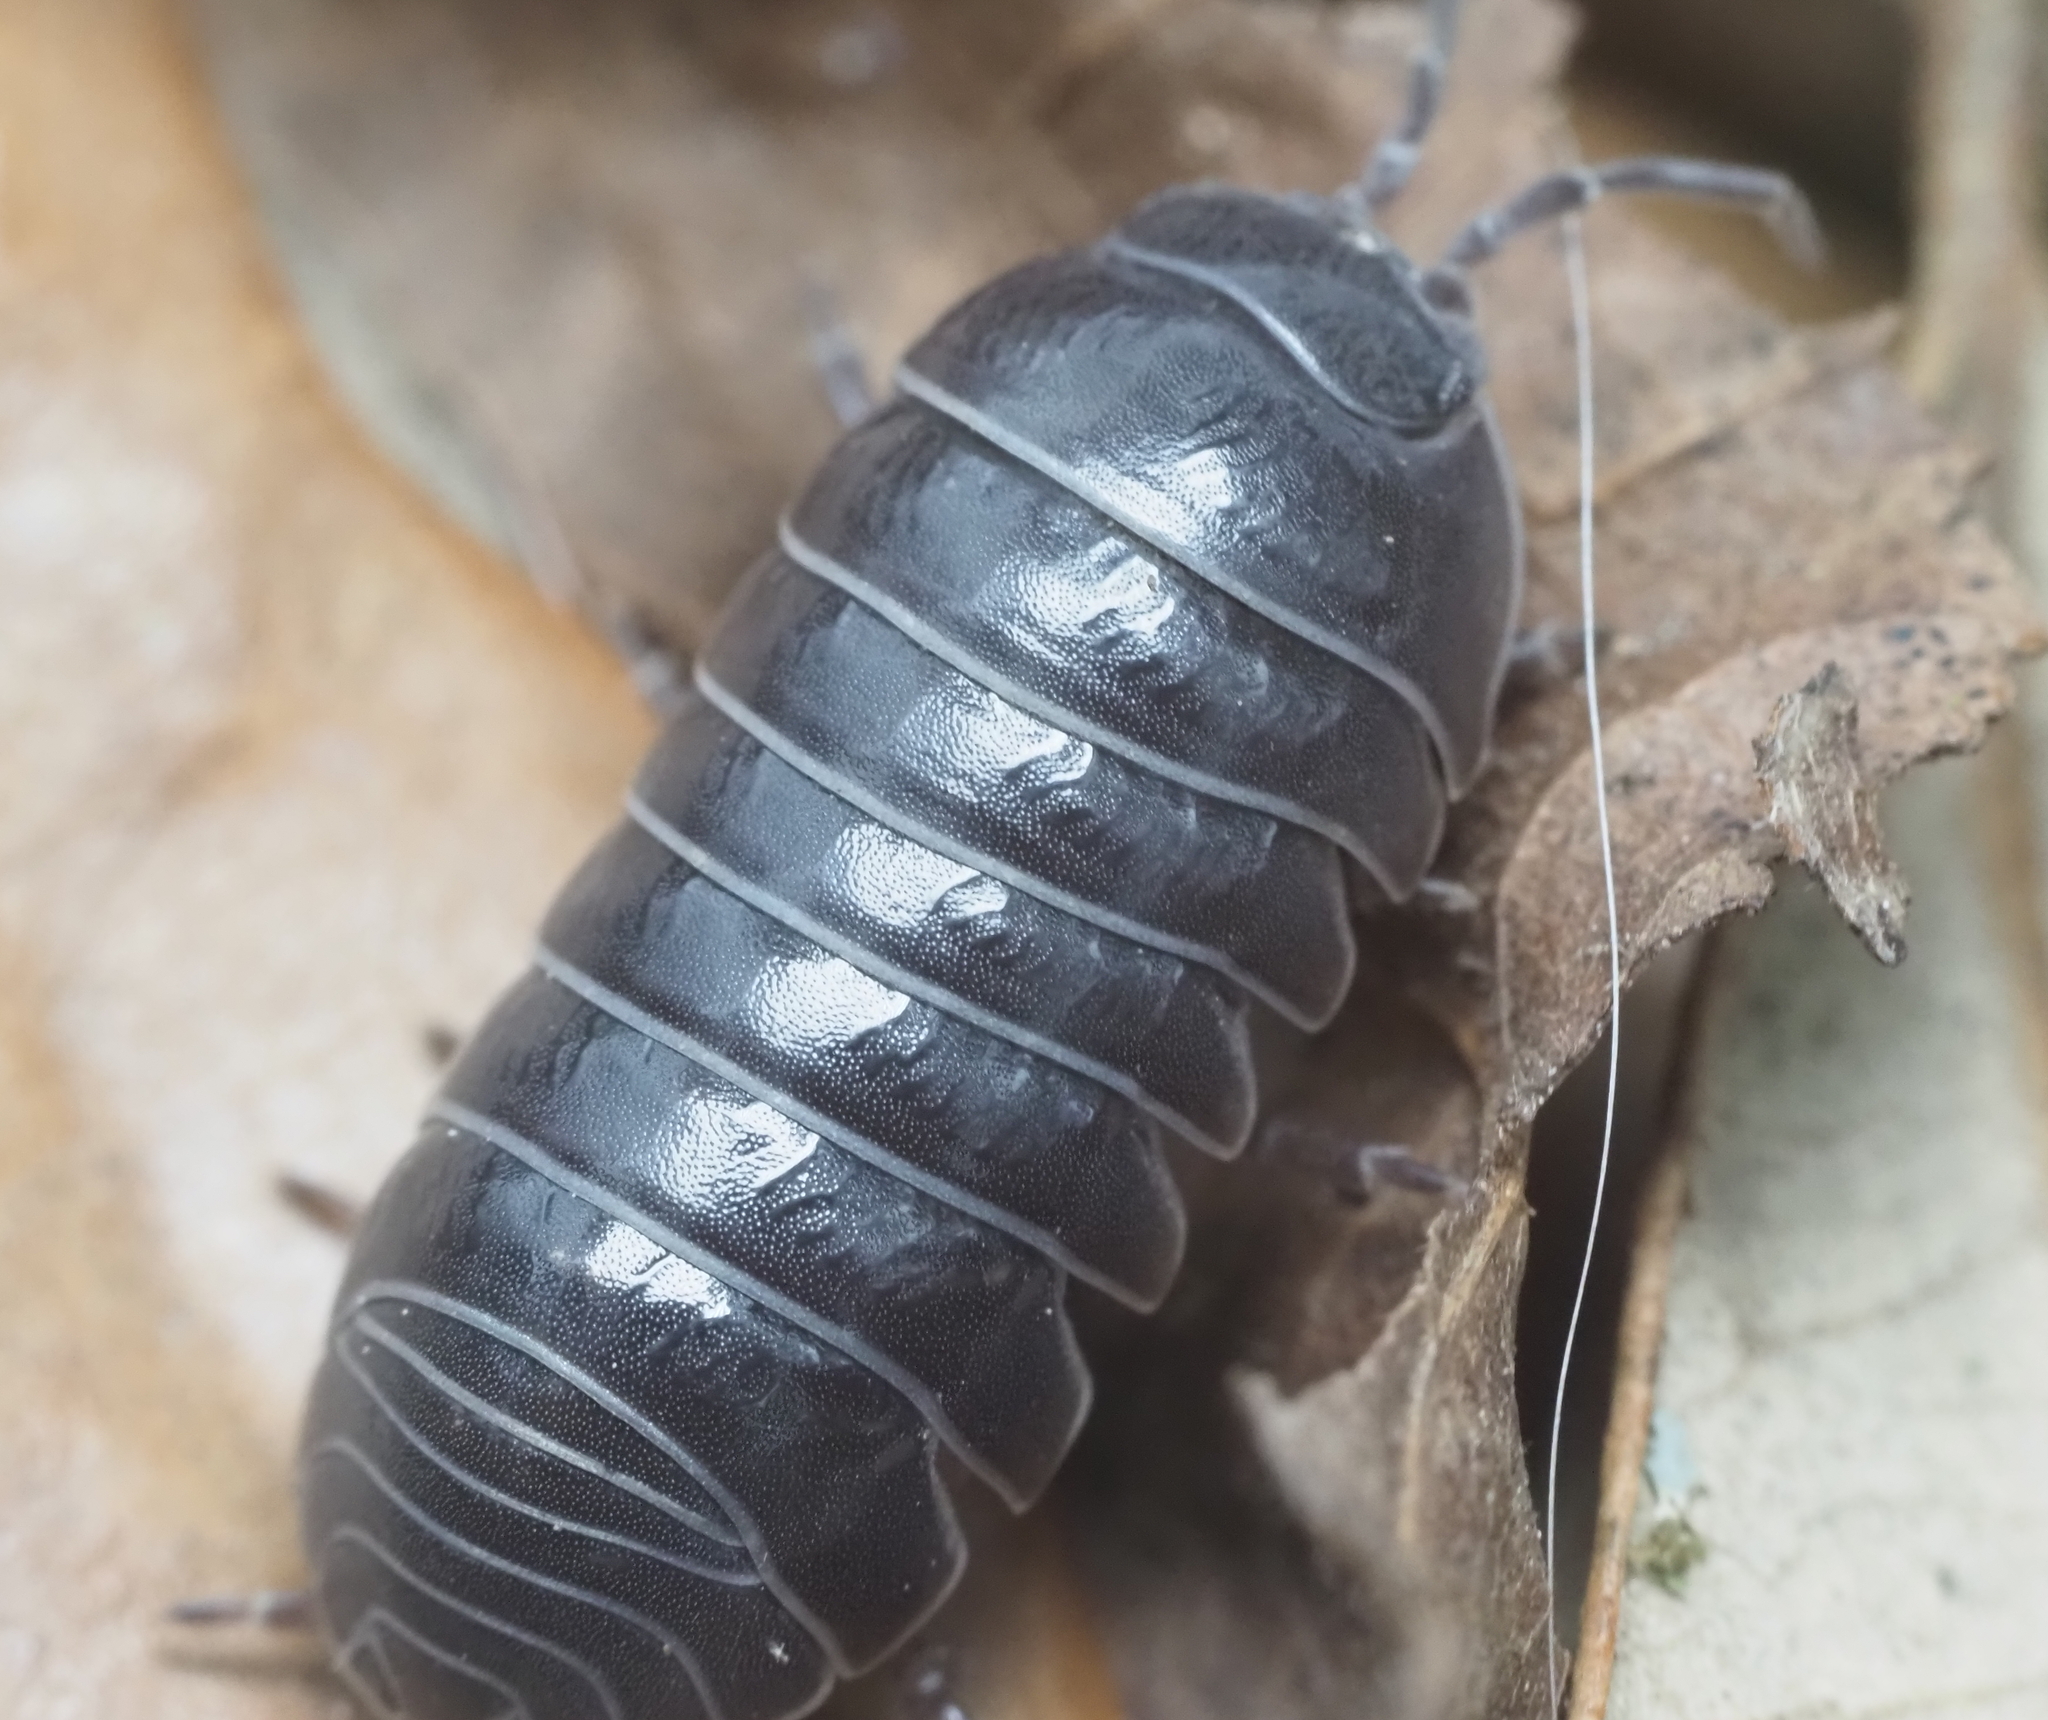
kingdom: Animalia
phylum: Arthropoda
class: Malacostraca
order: Isopoda
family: Armadillidiidae
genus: Armadillidium
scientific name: Armadillidium vulgare
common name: Common pill woodlouse
